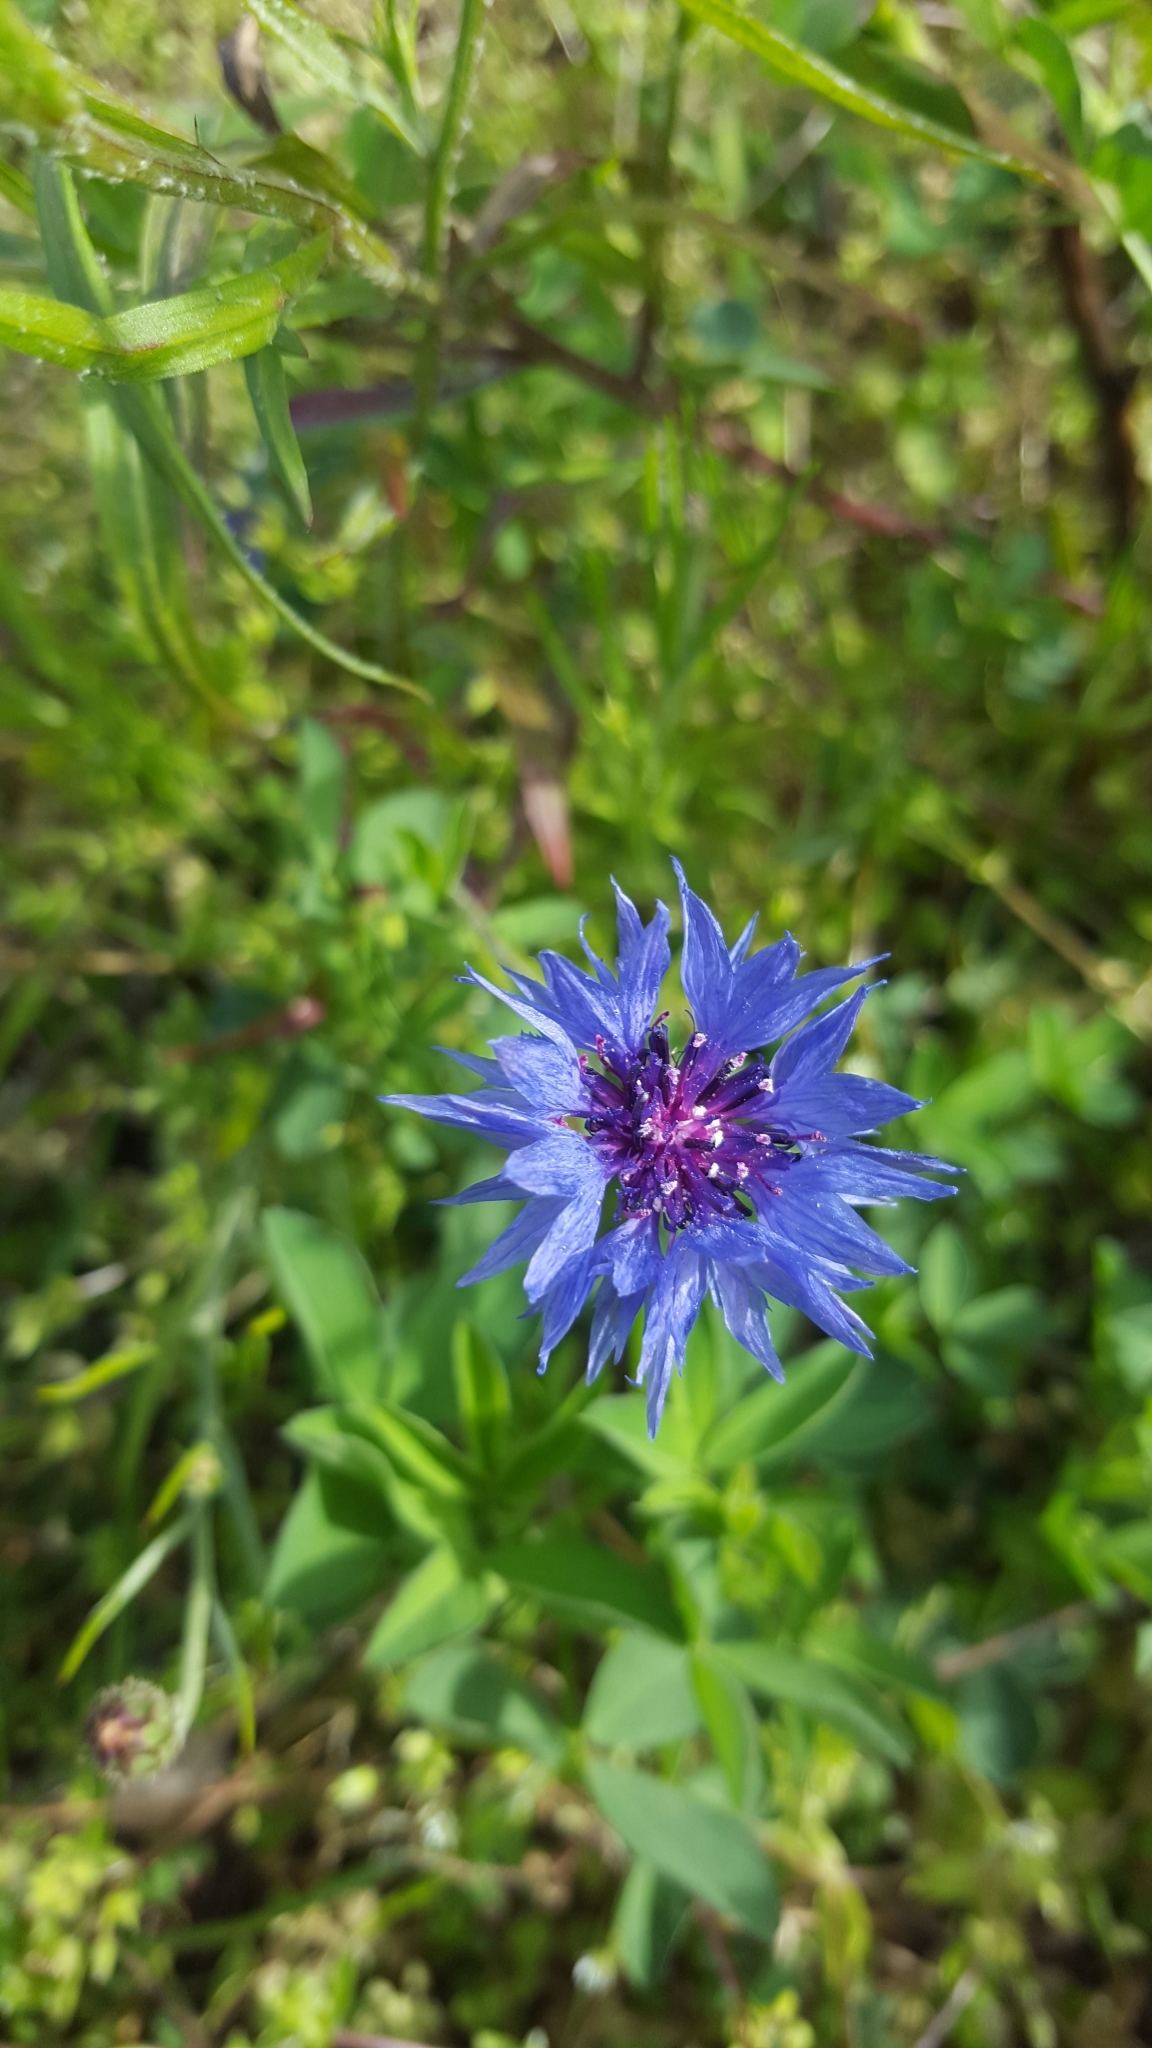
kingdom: Plantae
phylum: Tracheophyta
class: Magnoliopsida
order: Asterales
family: Asteraceae
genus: Centaurea
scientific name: Centaurea cyanus
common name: Cornflower
